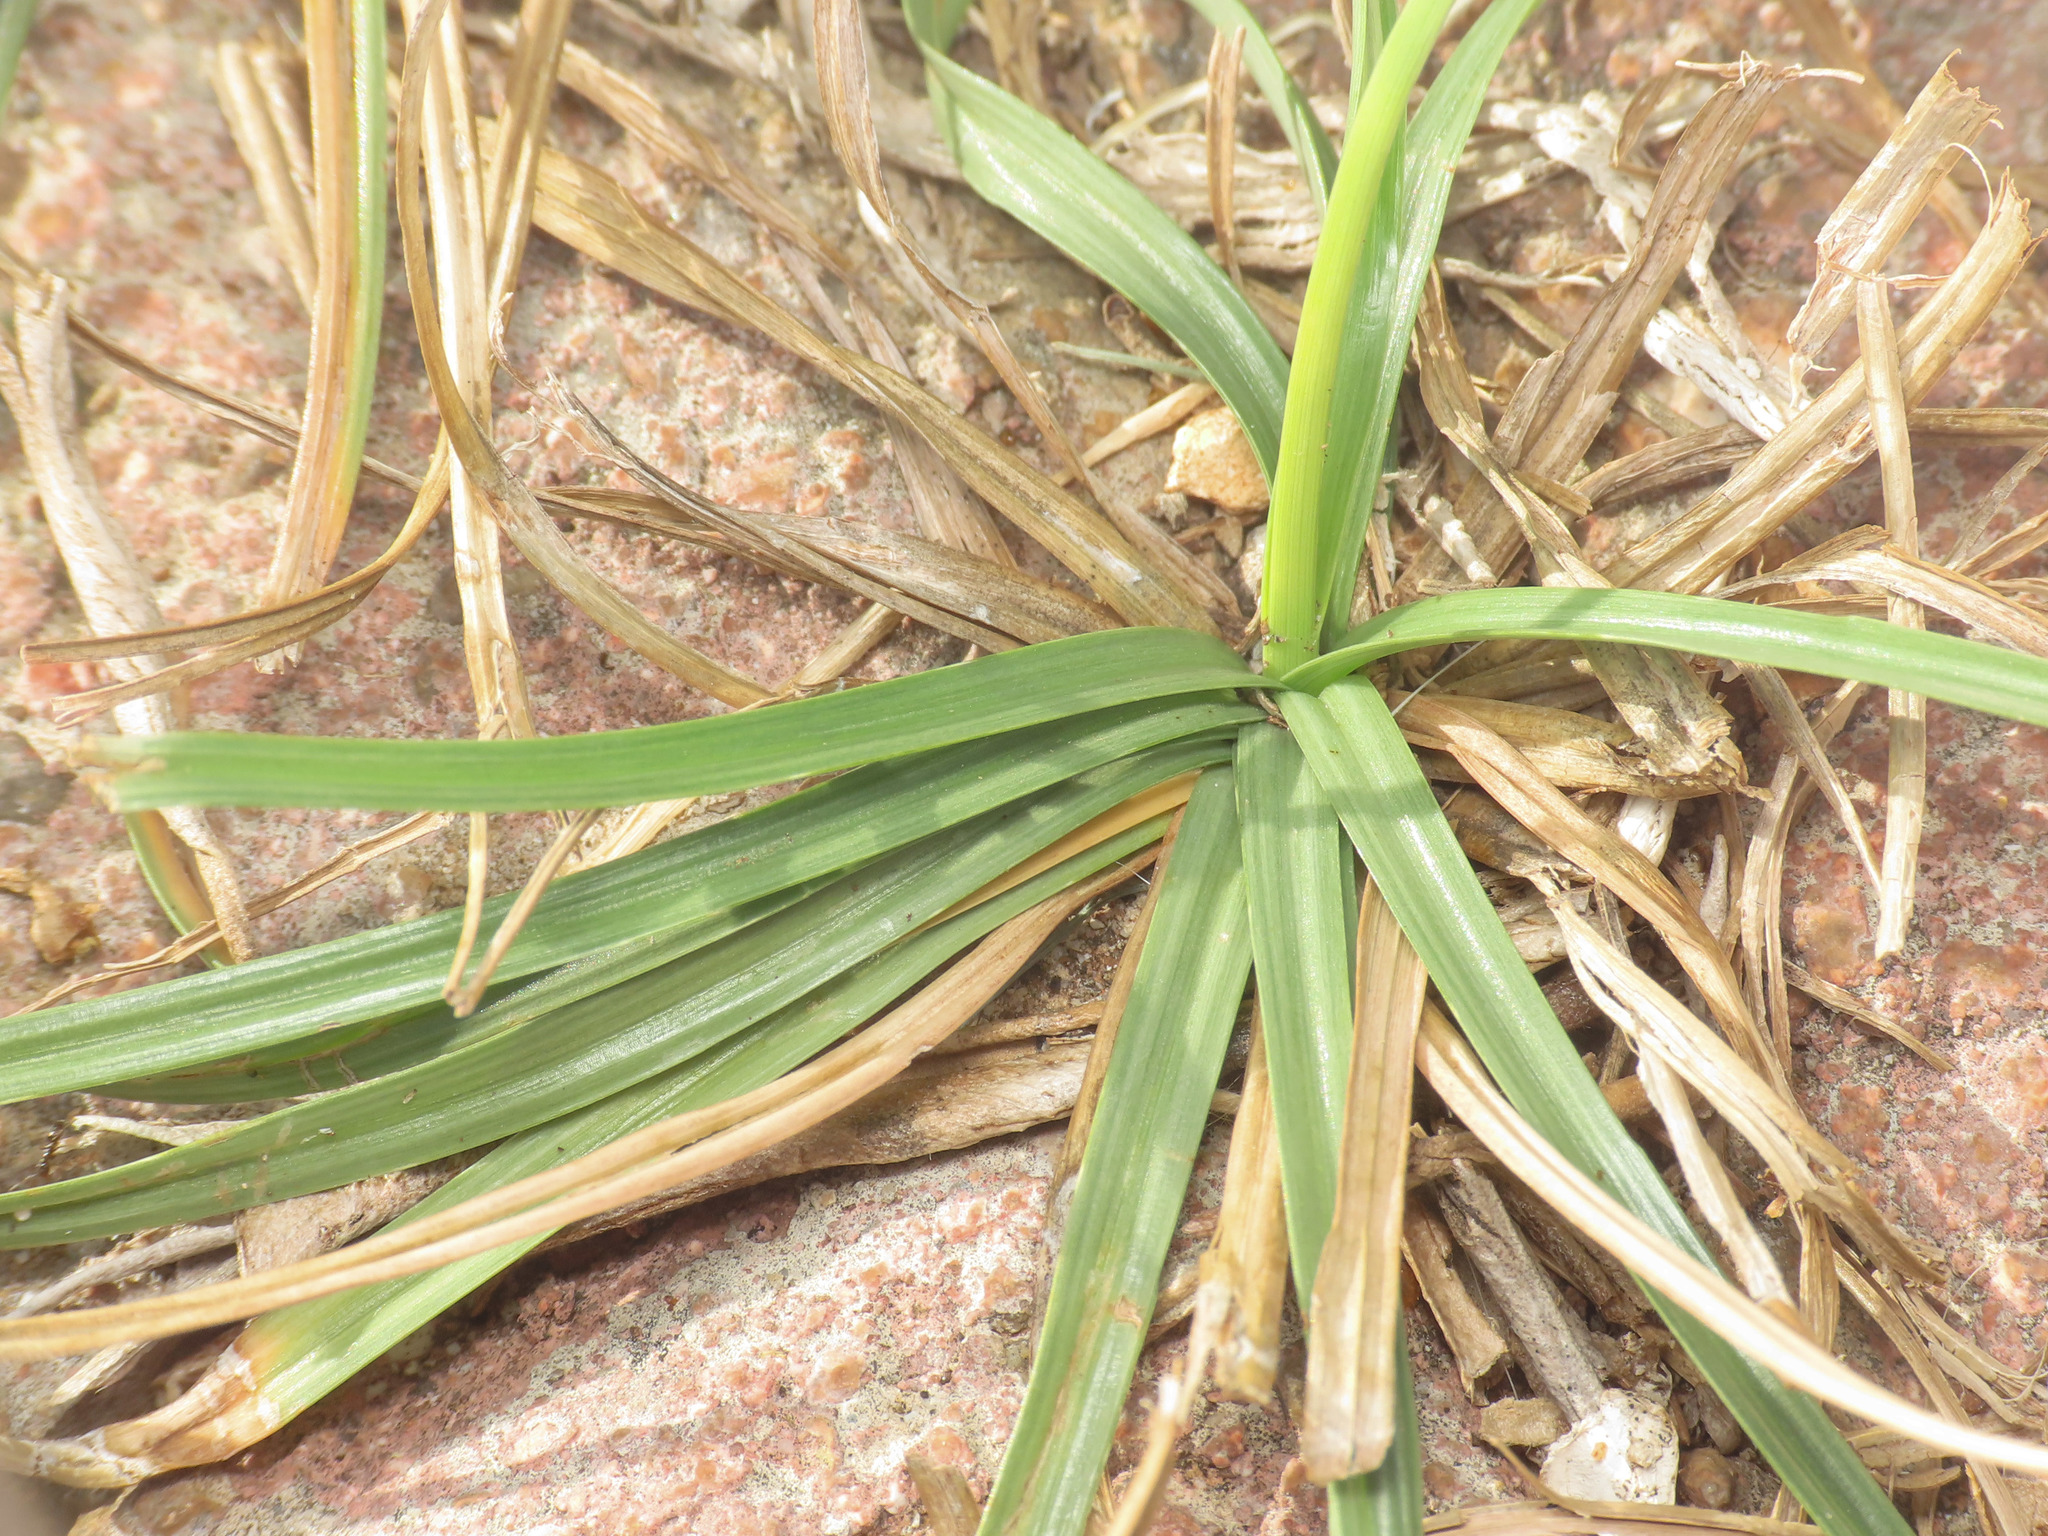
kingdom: Plantae
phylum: Tracheophyta
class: Liliopsida
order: Poales
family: Cyperaceae
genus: Cyperus
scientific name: Cyperus rotundus
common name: Nutgrass
